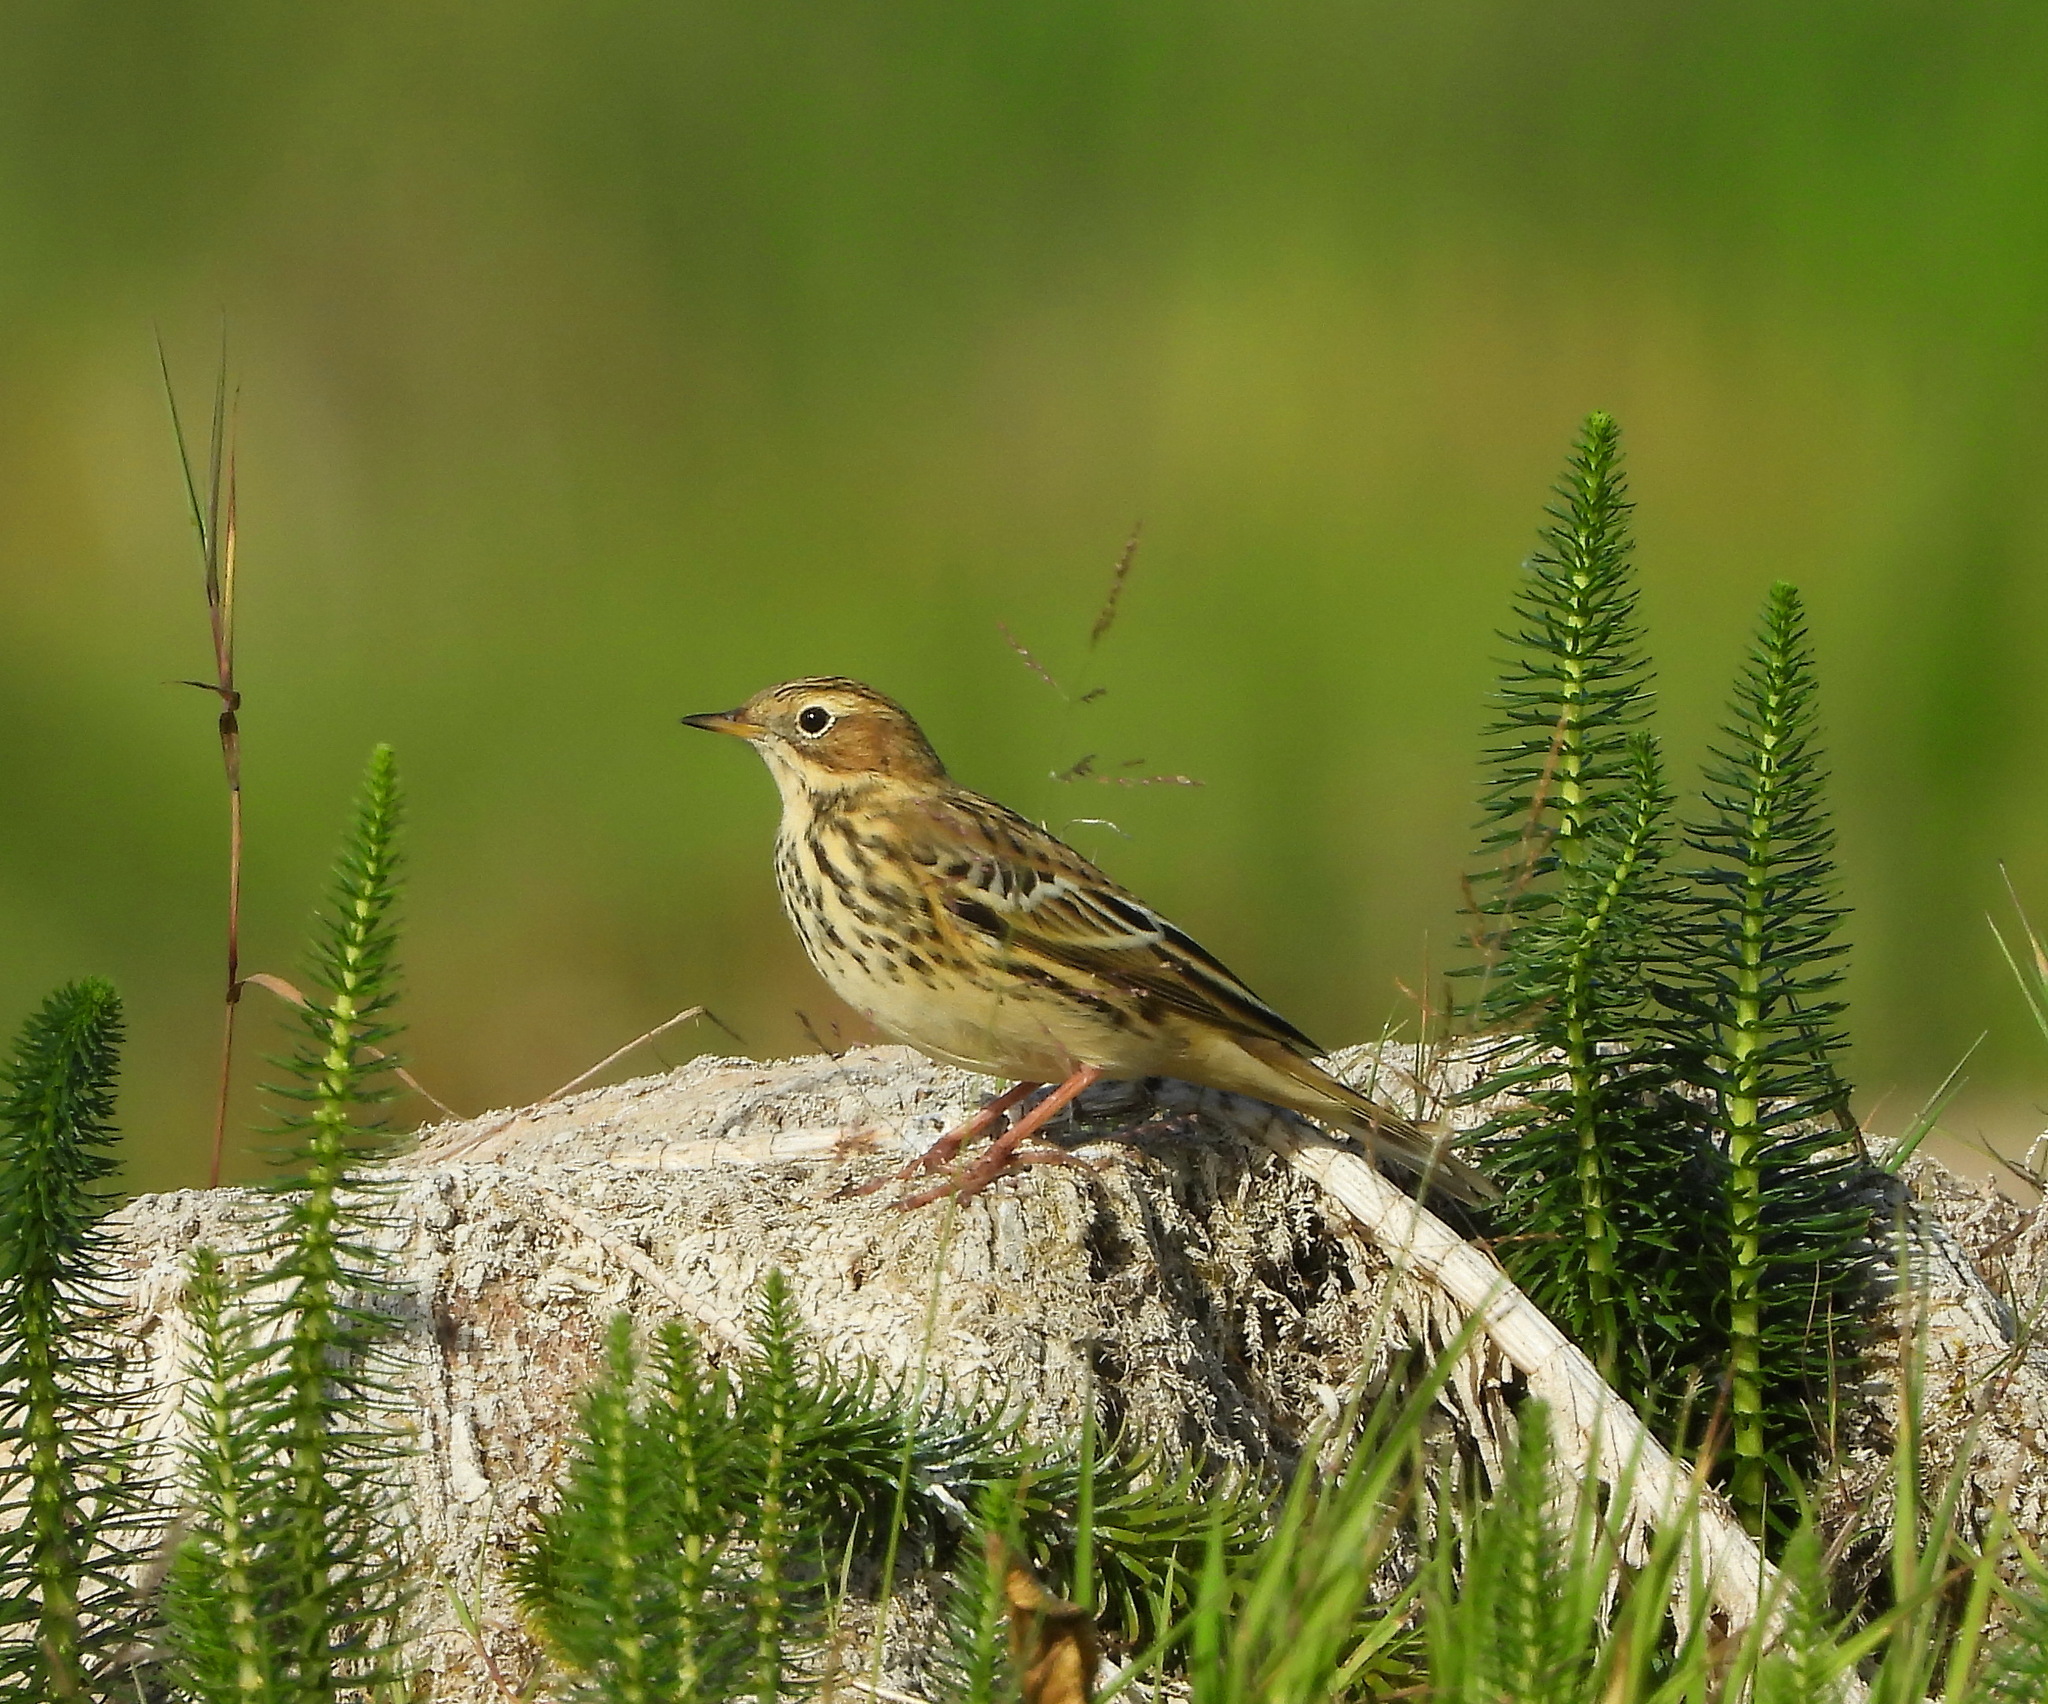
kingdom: Animalia
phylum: Chordata
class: Aves
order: Passeriformes
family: Motacillidae
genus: Anthus
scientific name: Anthus pratensis
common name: Meadow pipit
